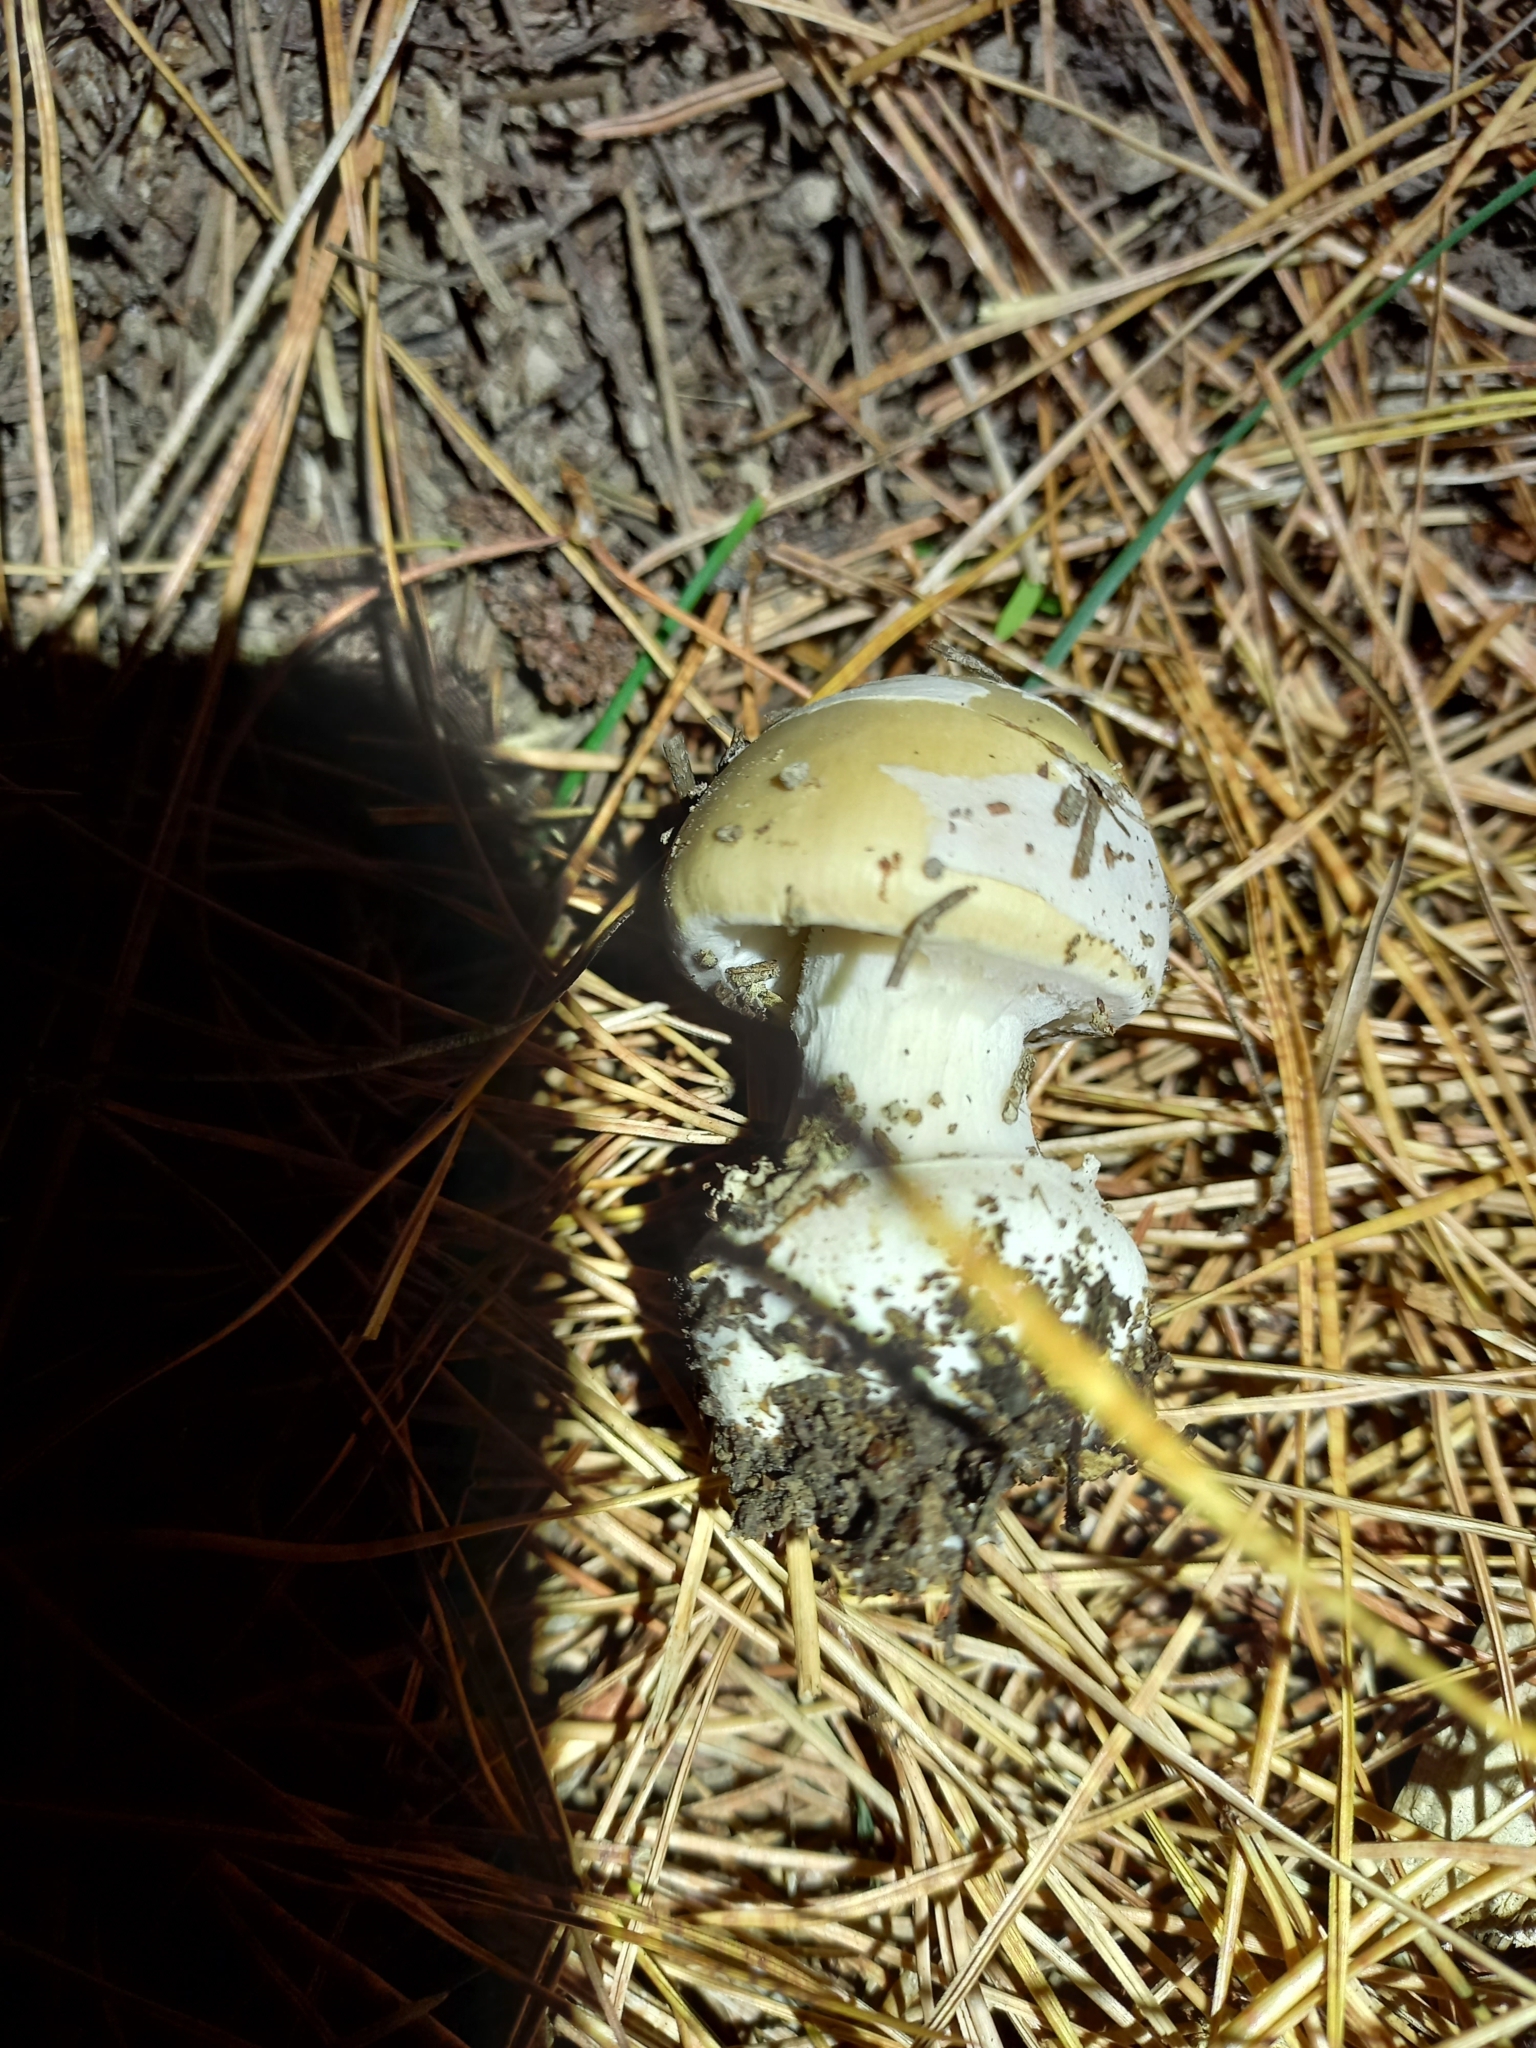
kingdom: Fungi
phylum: Basidiomycota
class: Agaricomycetes
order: Agaricales
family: Amanitaceae
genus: Amanita
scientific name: Amanita gemmata
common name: Jewelled amanita
